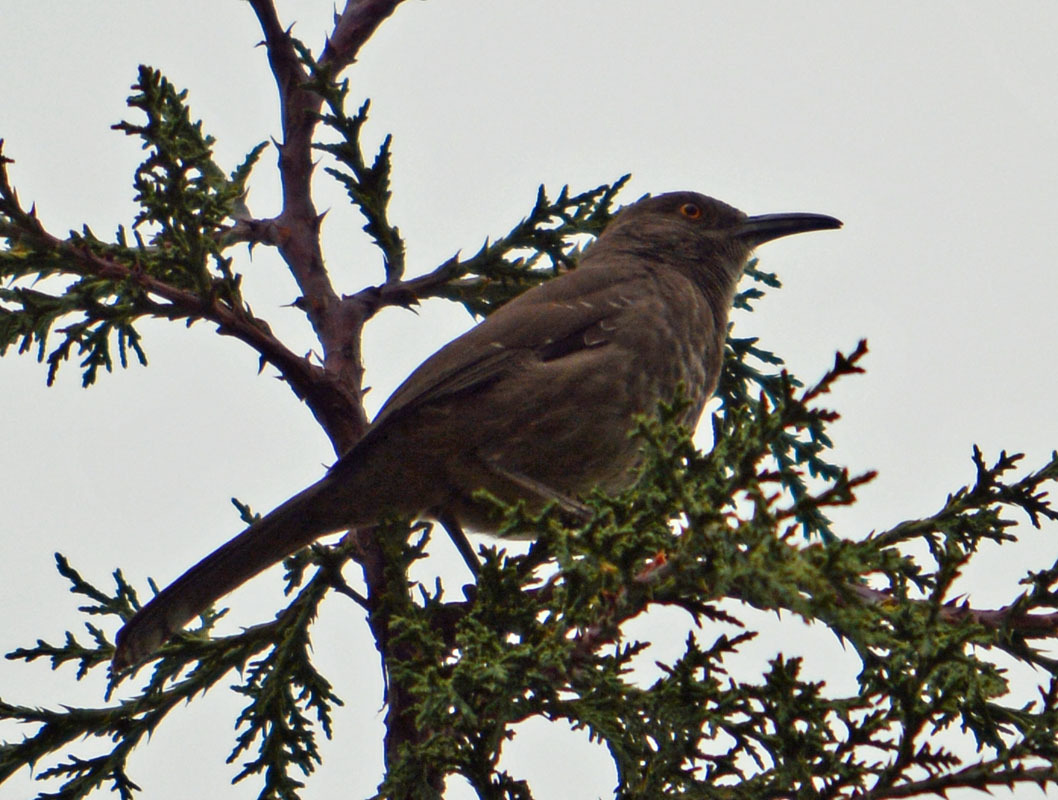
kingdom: Animalia
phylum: Chordata
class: Aves
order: Passeriformes
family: Mimidae
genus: Toxostoma
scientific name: Toxostoma curvirostre
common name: Curve-billed thrasher
